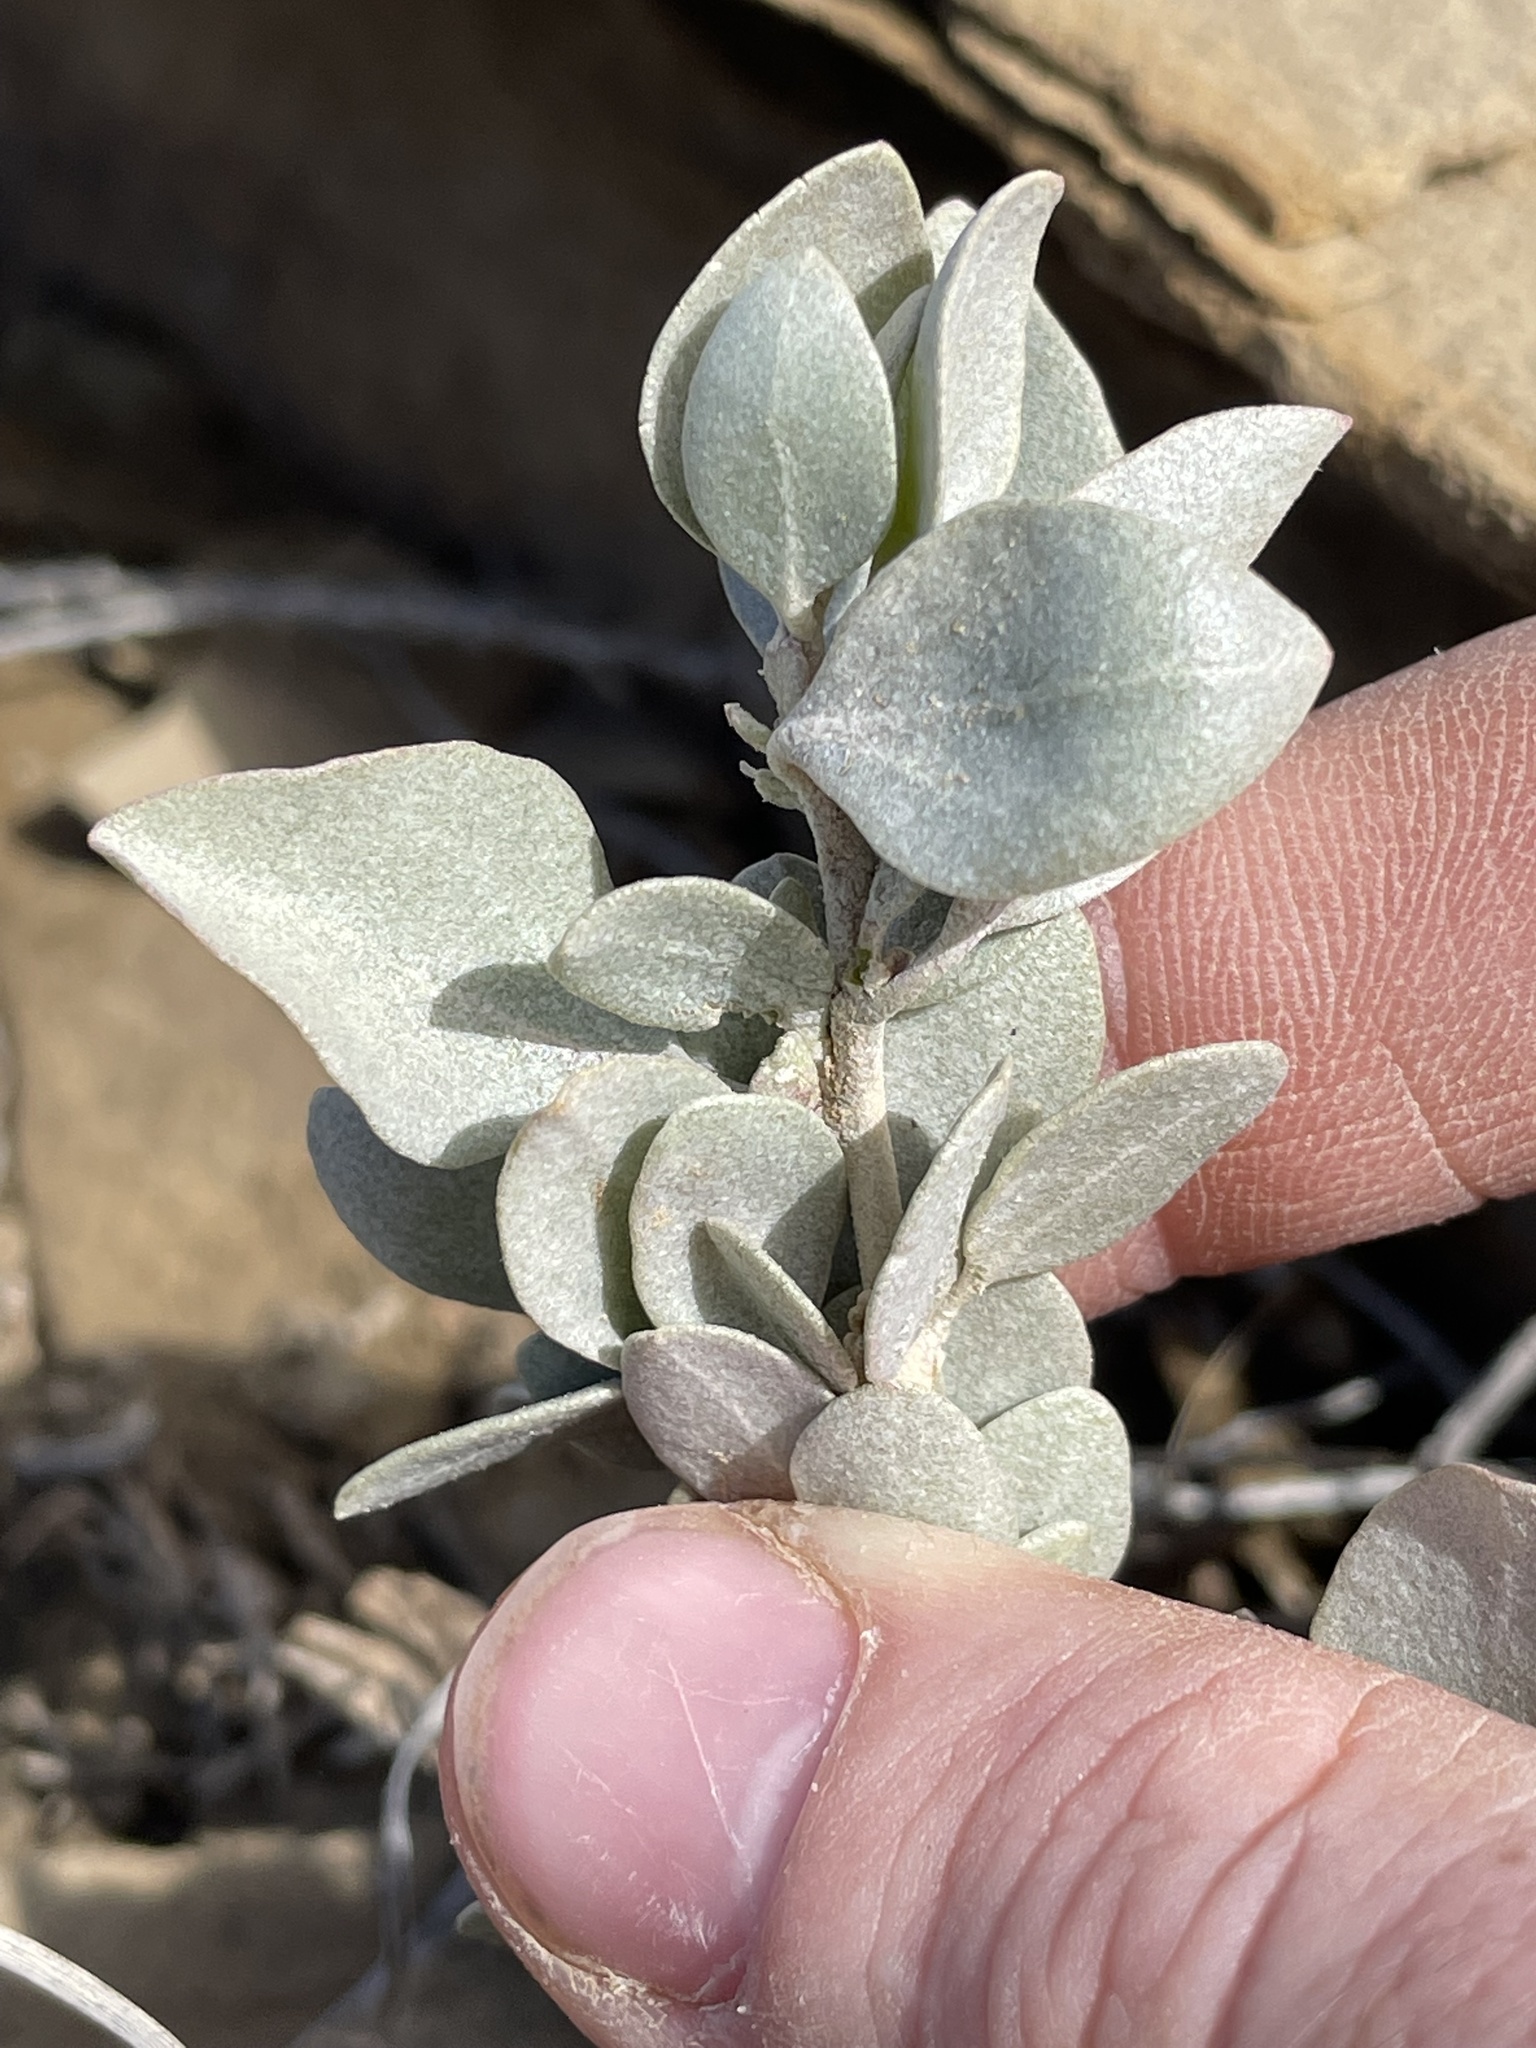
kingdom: Plantae
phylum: Tracheophyta
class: Magnoliopsida
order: Caryophyllales
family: Amaranthaceae
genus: Atriplex
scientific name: Atriplex confertifolia
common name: Shadscale
